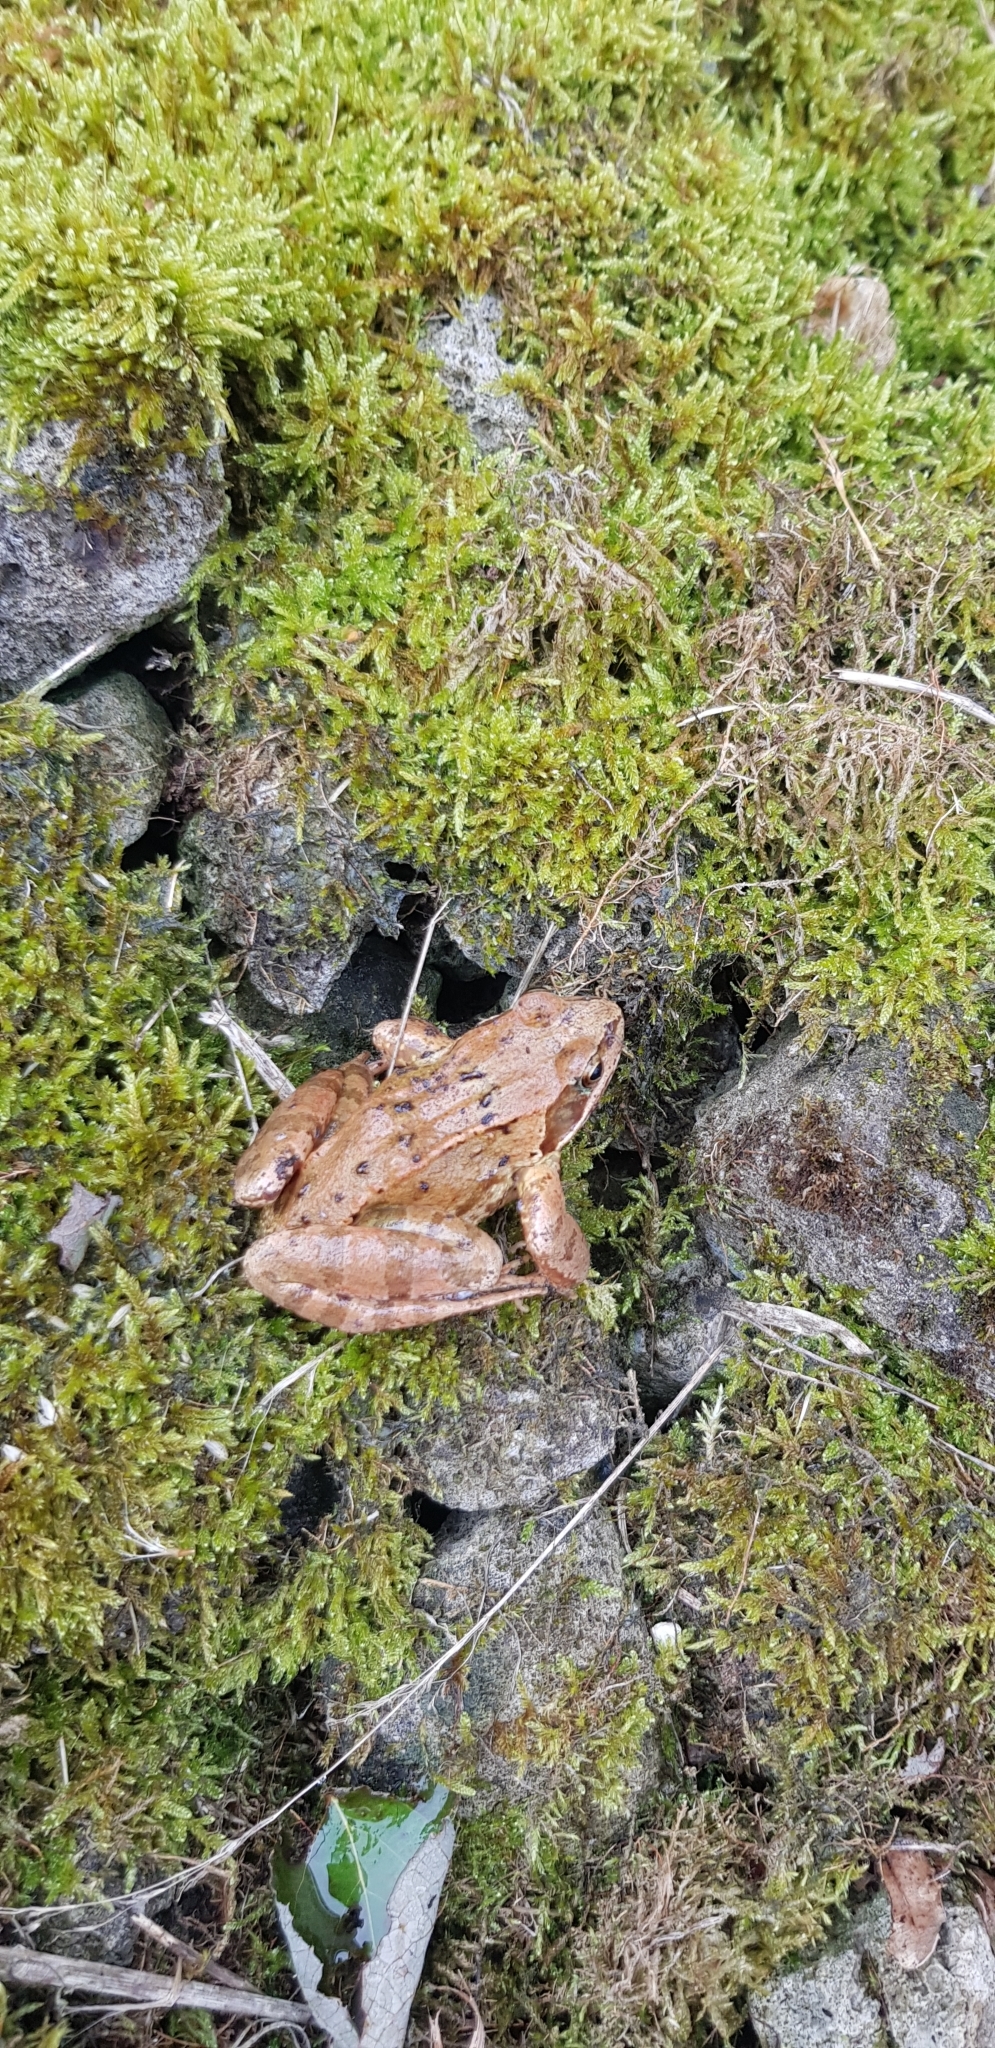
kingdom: Animalia
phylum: Chordata
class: Amphibia
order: Anura
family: Ranidae
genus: Rana
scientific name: Rana temporaria
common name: Common frog
